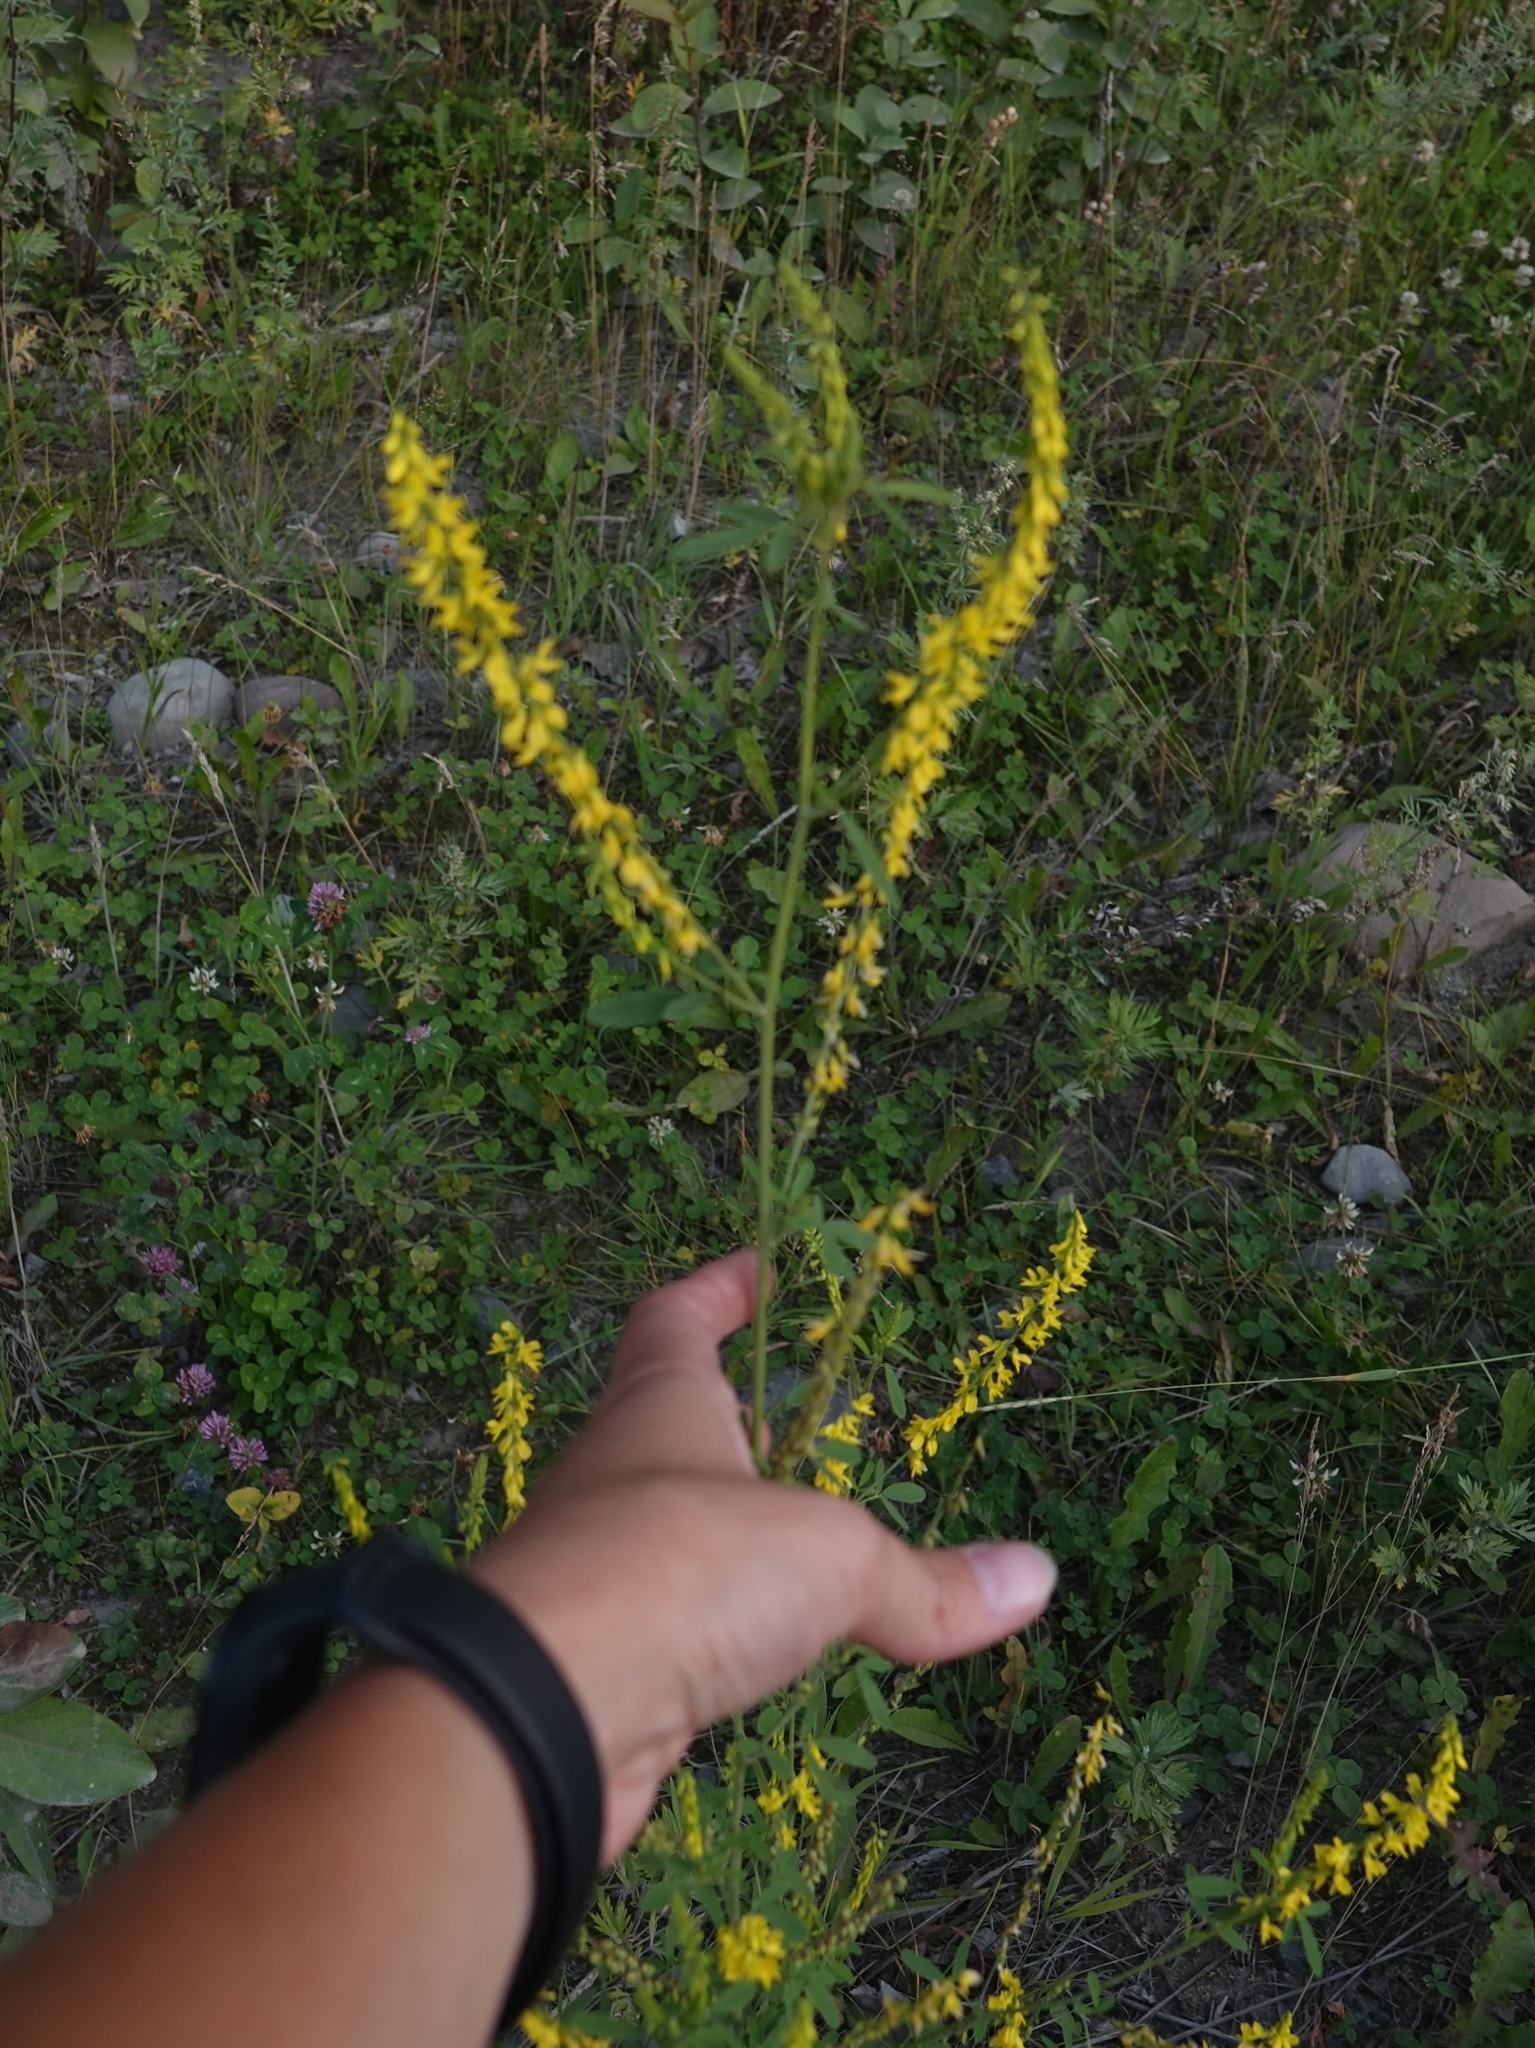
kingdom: Plantae
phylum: Tracheophyta
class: Magnoliopsida
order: Fabales
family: Fabaceae
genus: Melilotus
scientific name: Melilotus officinalis
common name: Sweetclover
